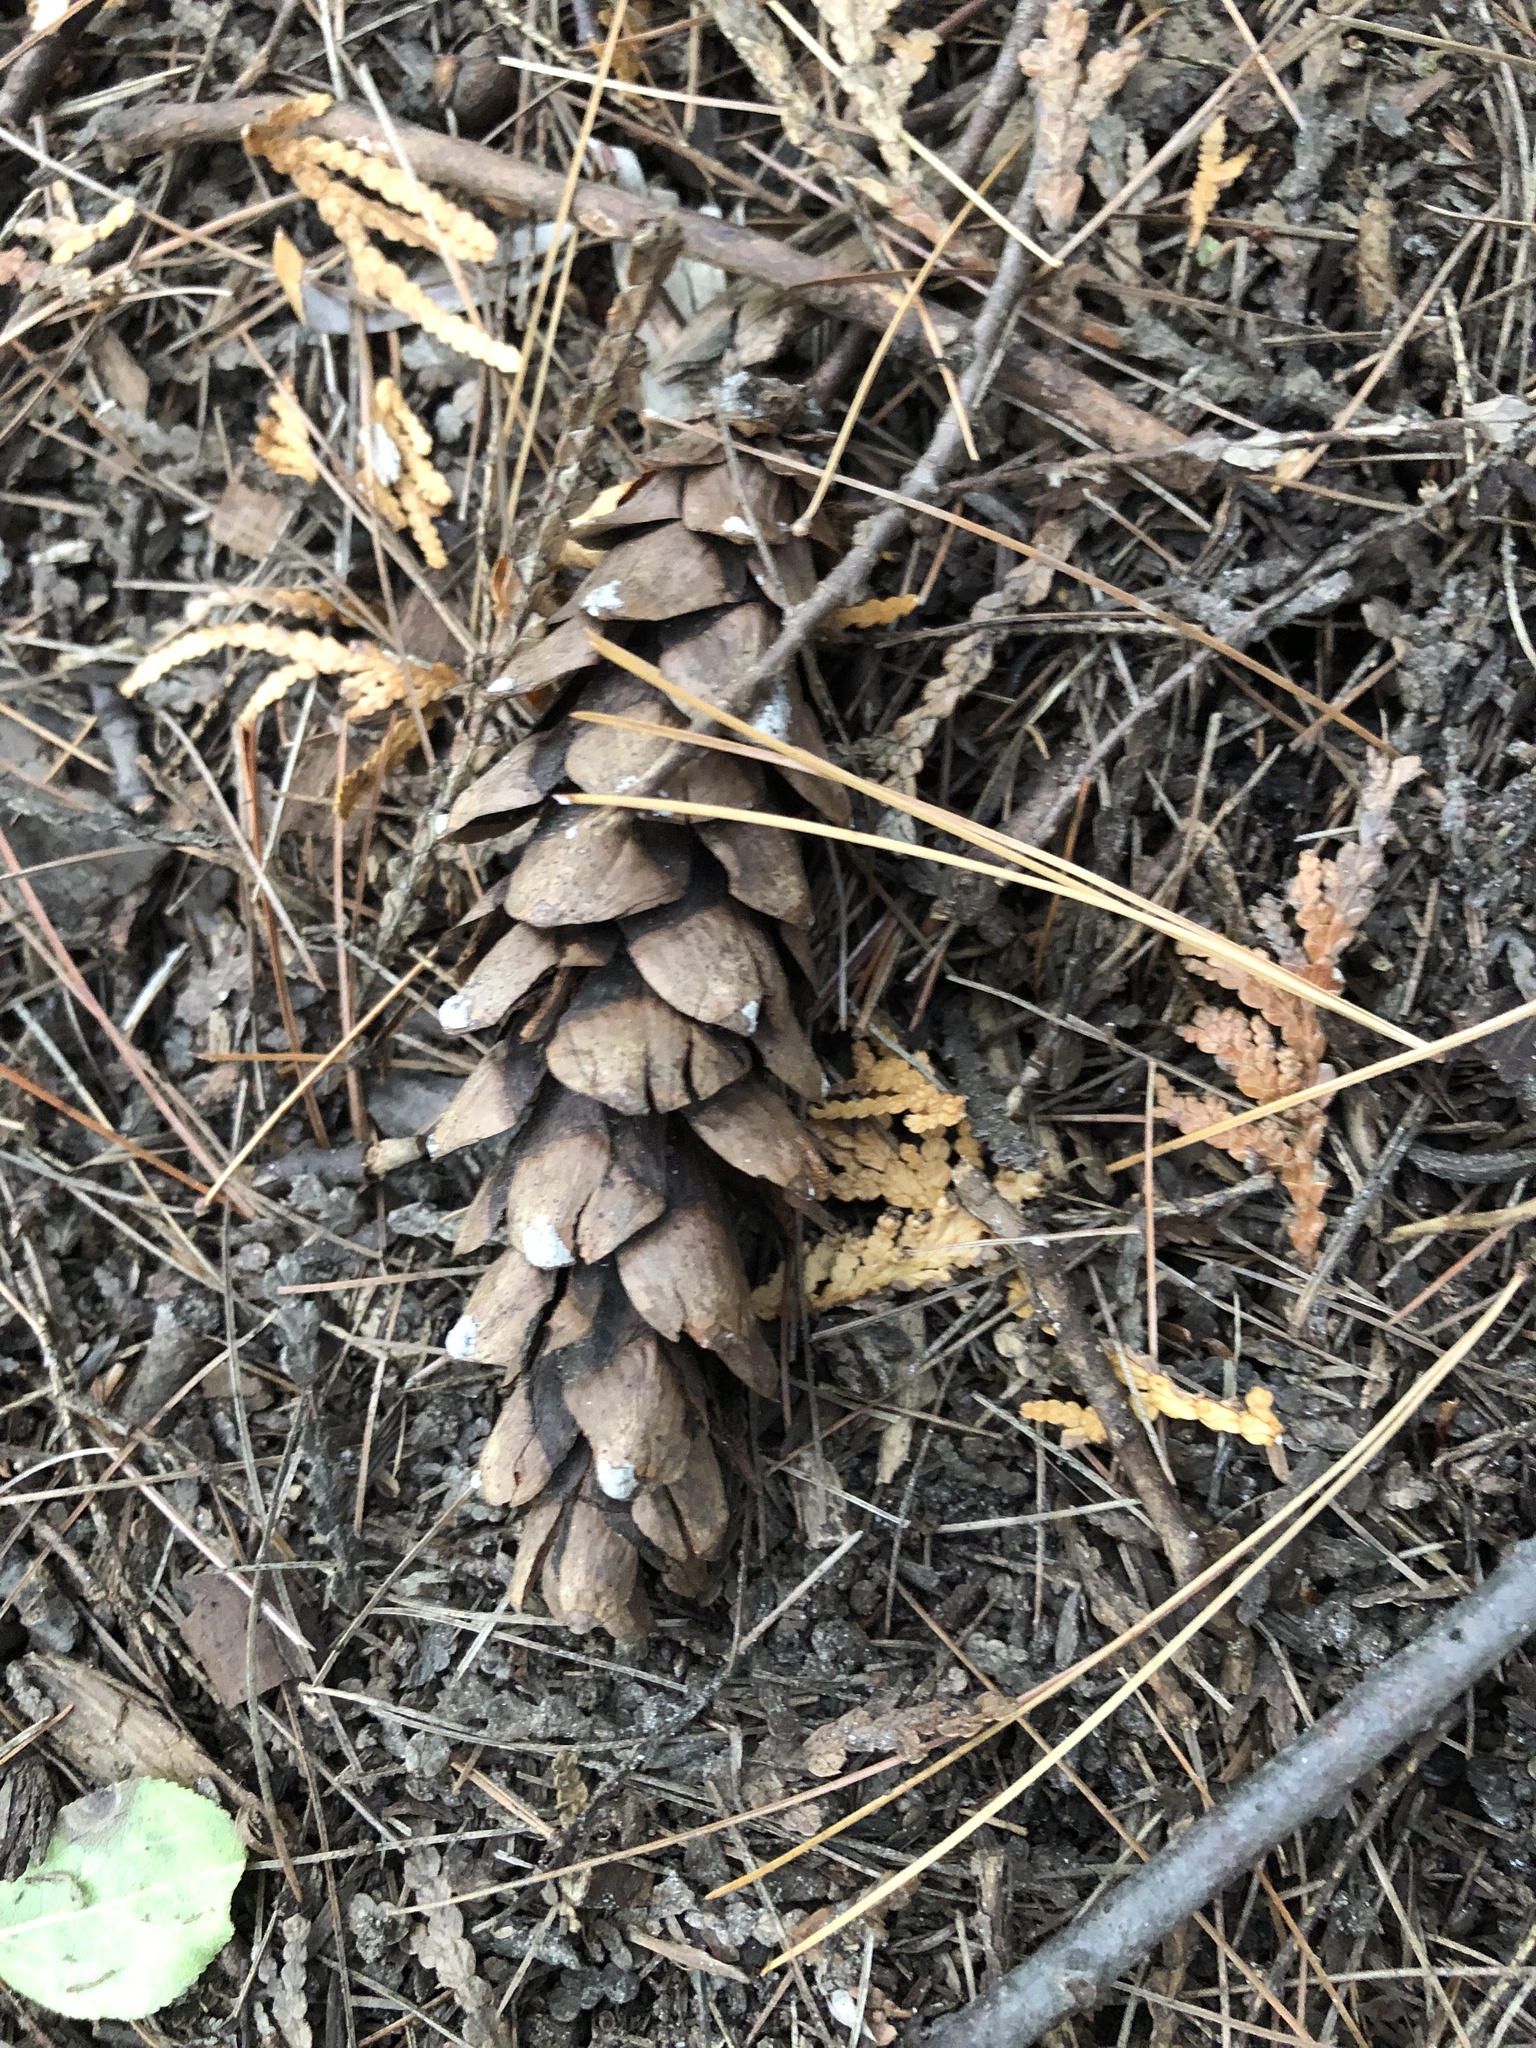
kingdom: Plantae
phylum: Tracheophyta
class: Pinopsida
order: Pinales
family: Pinaceae
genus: Pinus
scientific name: Pinus strobus
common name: Weymouth pine
